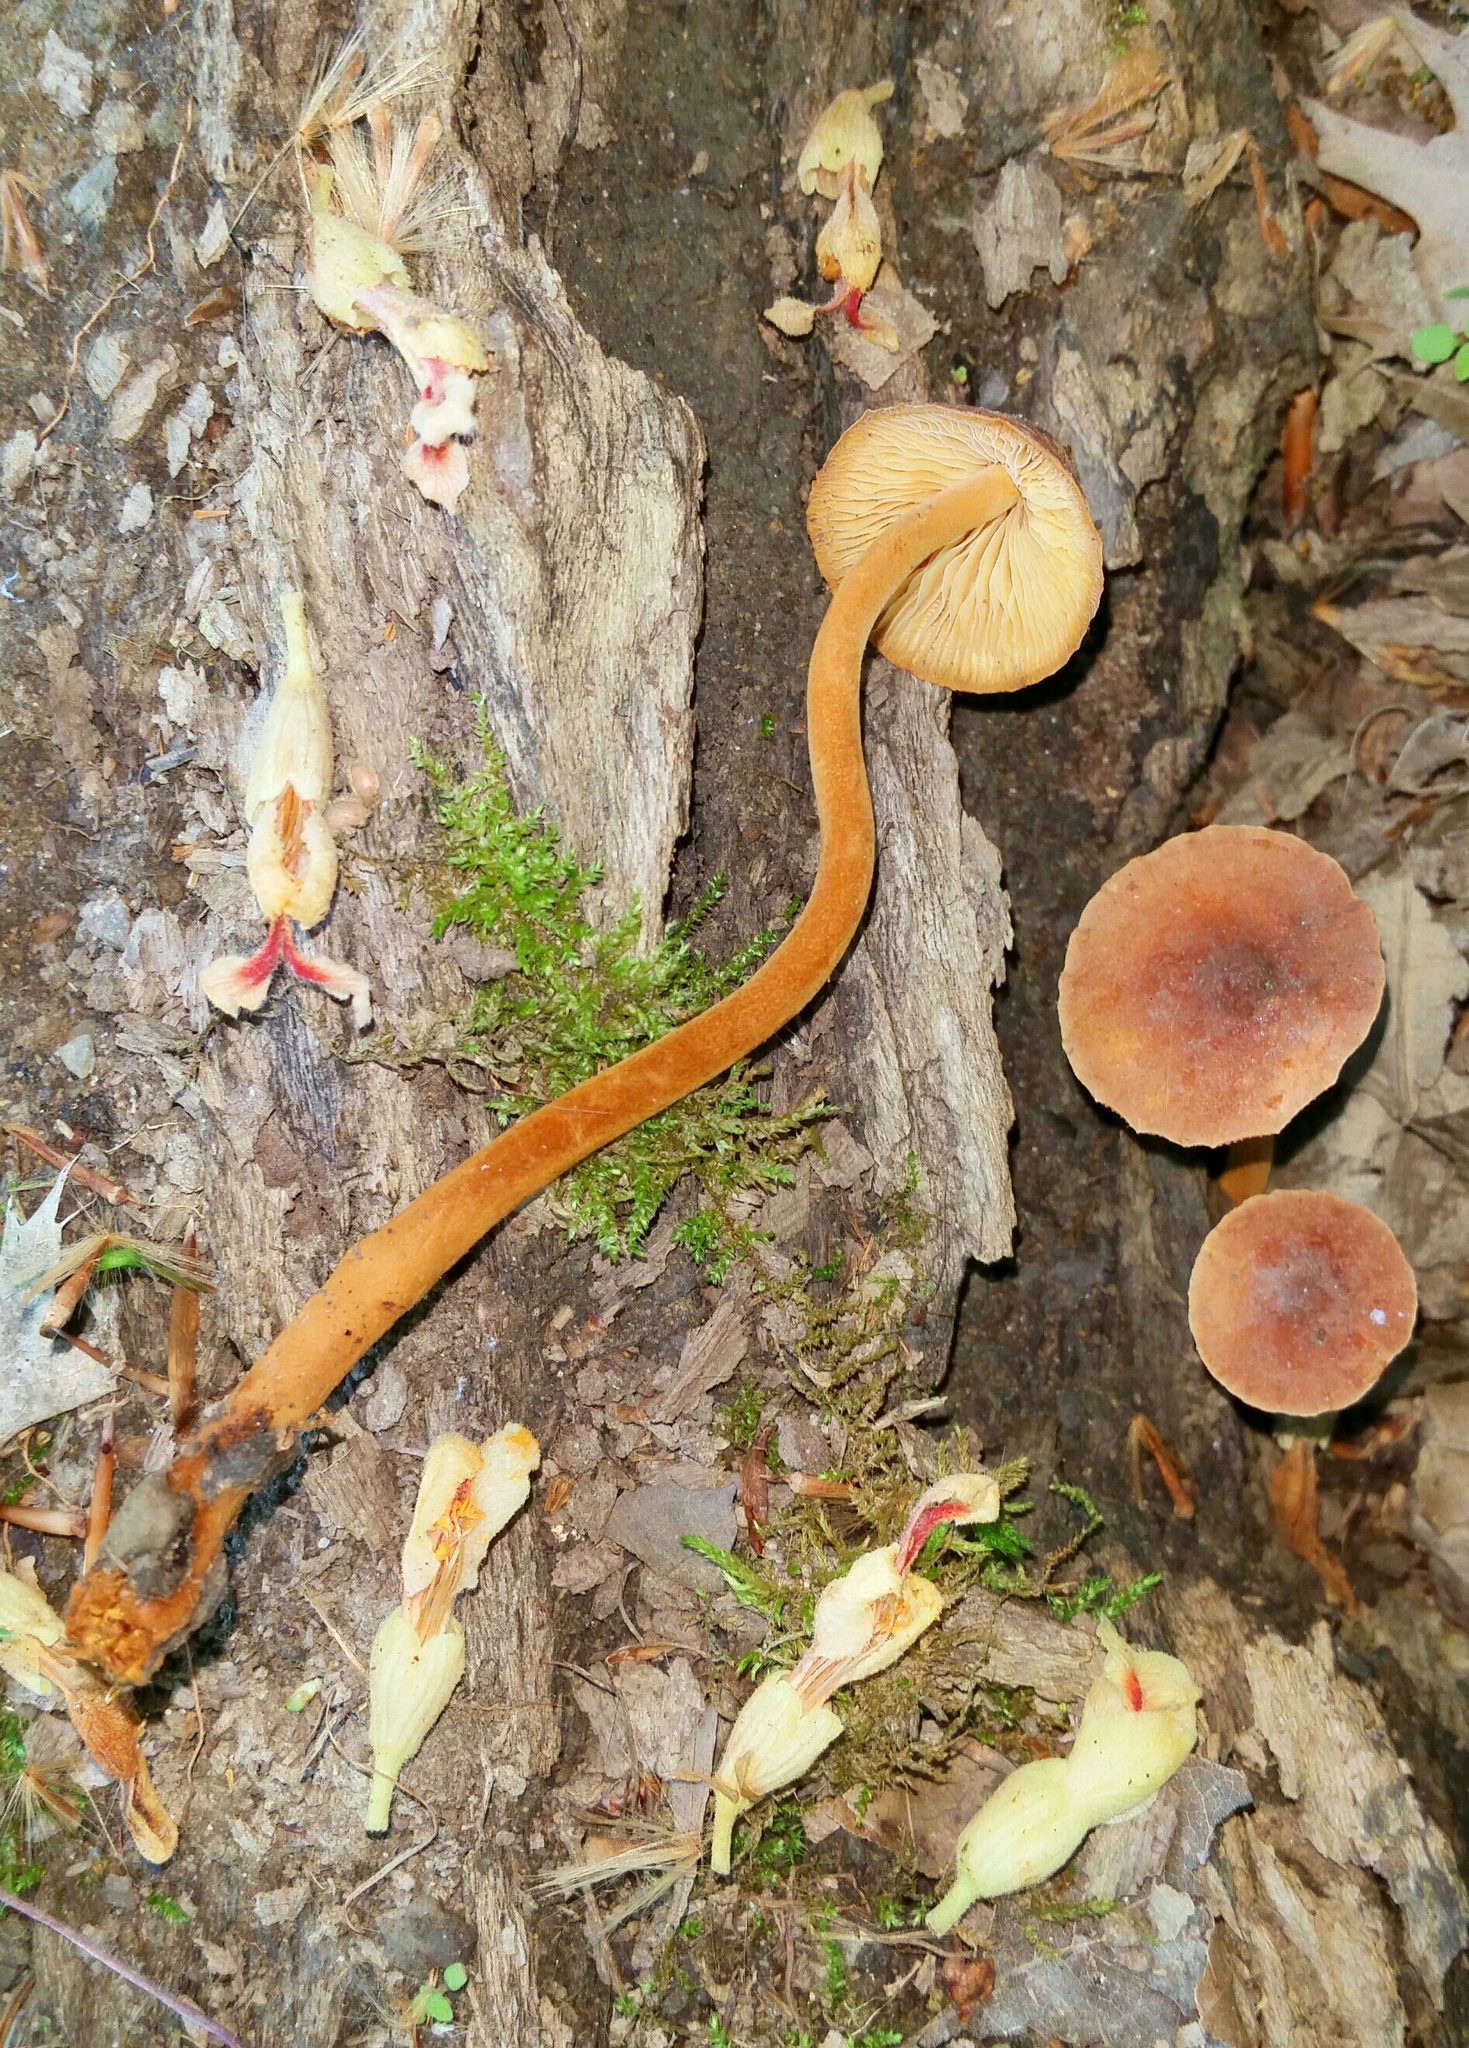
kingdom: Fungi
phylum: Basidiomycota
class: Agaricomycetes
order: Agaricales
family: Mycenaceae
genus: Xeromphalina
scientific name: Xeromphalina tenuipes
